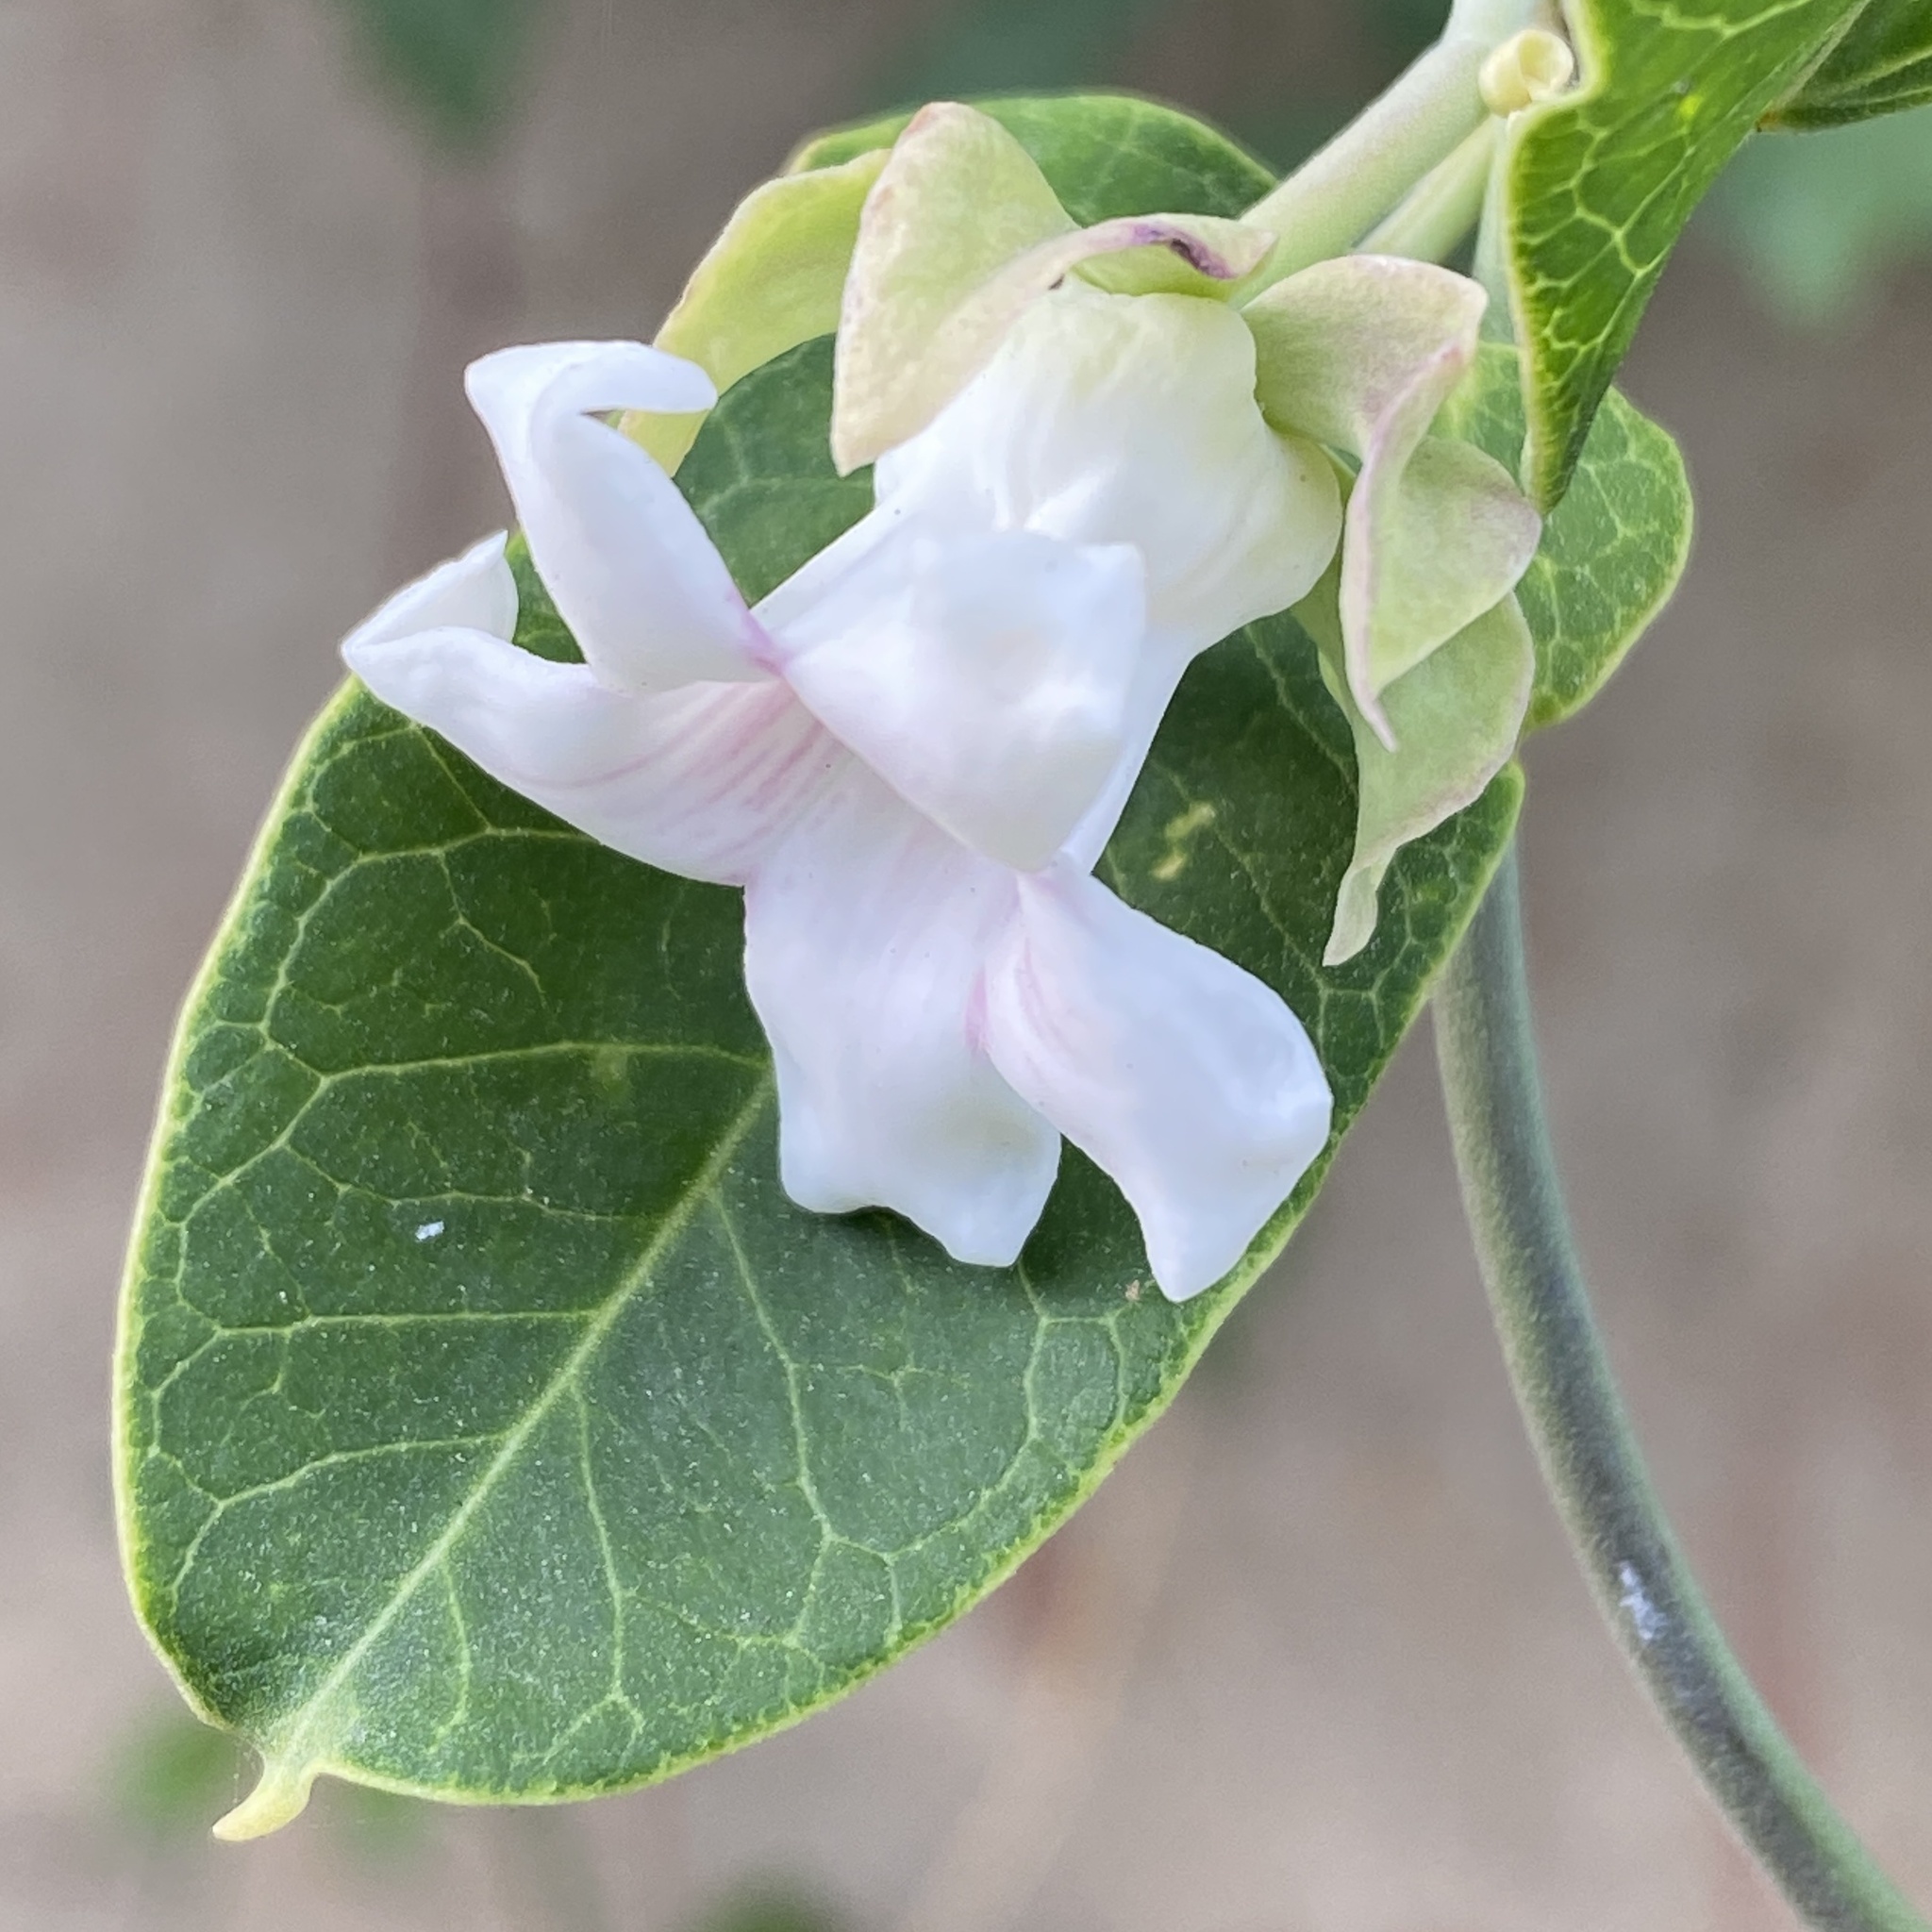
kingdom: Plantae
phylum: Tracheophyta
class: Magnoliopsida
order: Gentianales
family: Apocynaceae
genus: Araujia
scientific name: Araujia sericifera
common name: White bladderflower
